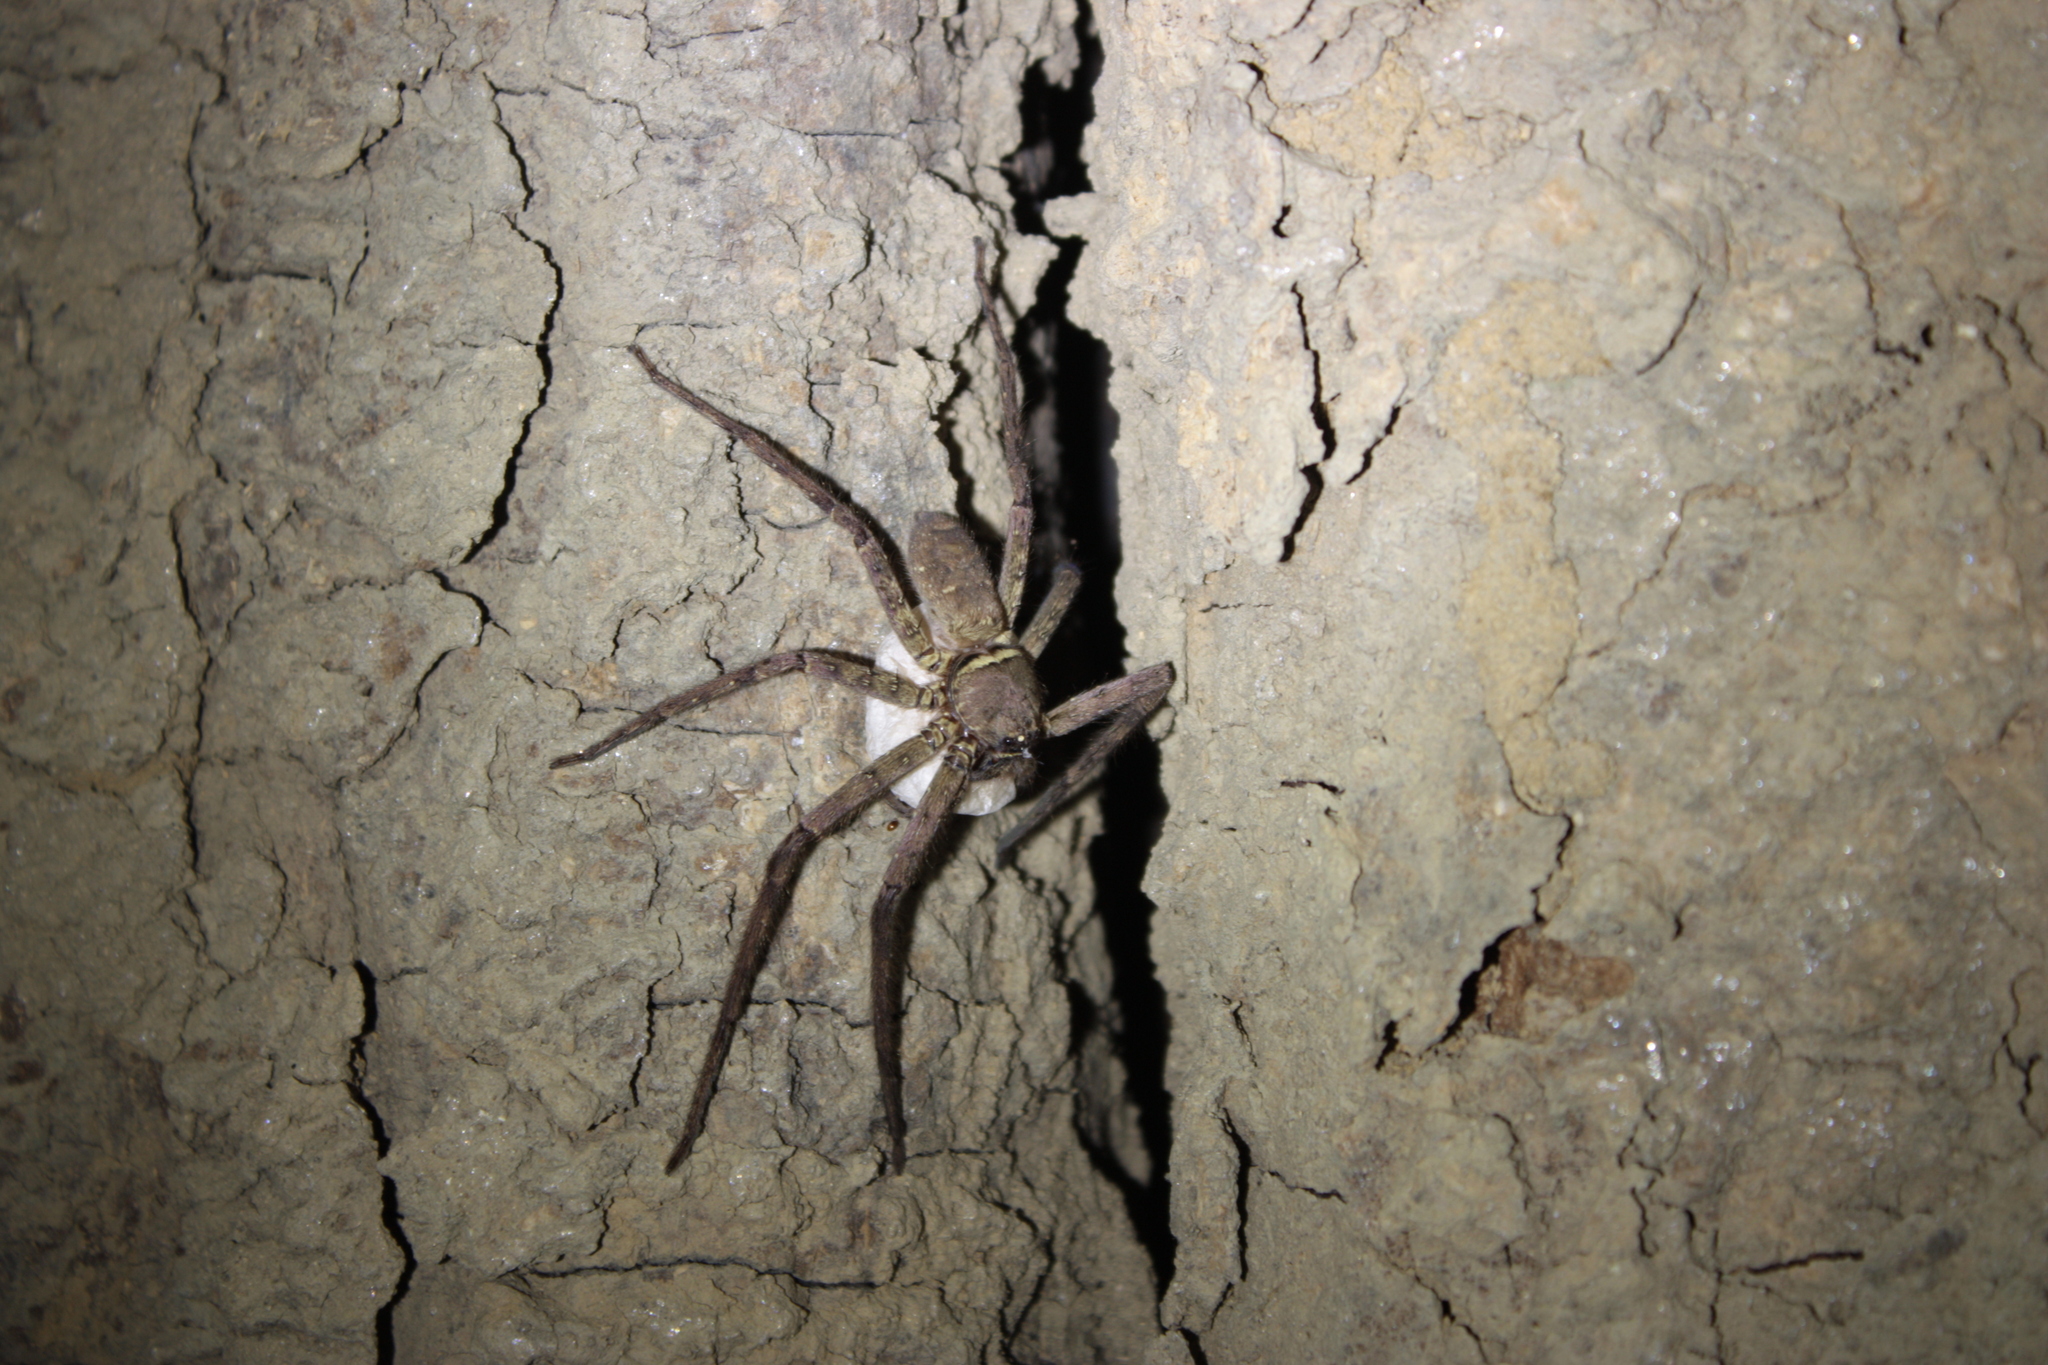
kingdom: Animalia
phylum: Arthropoda
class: Arachnida
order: Araneae
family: Sparassidae
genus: Heteropoda
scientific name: Heteropoda venatoria
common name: Huntsman spider
